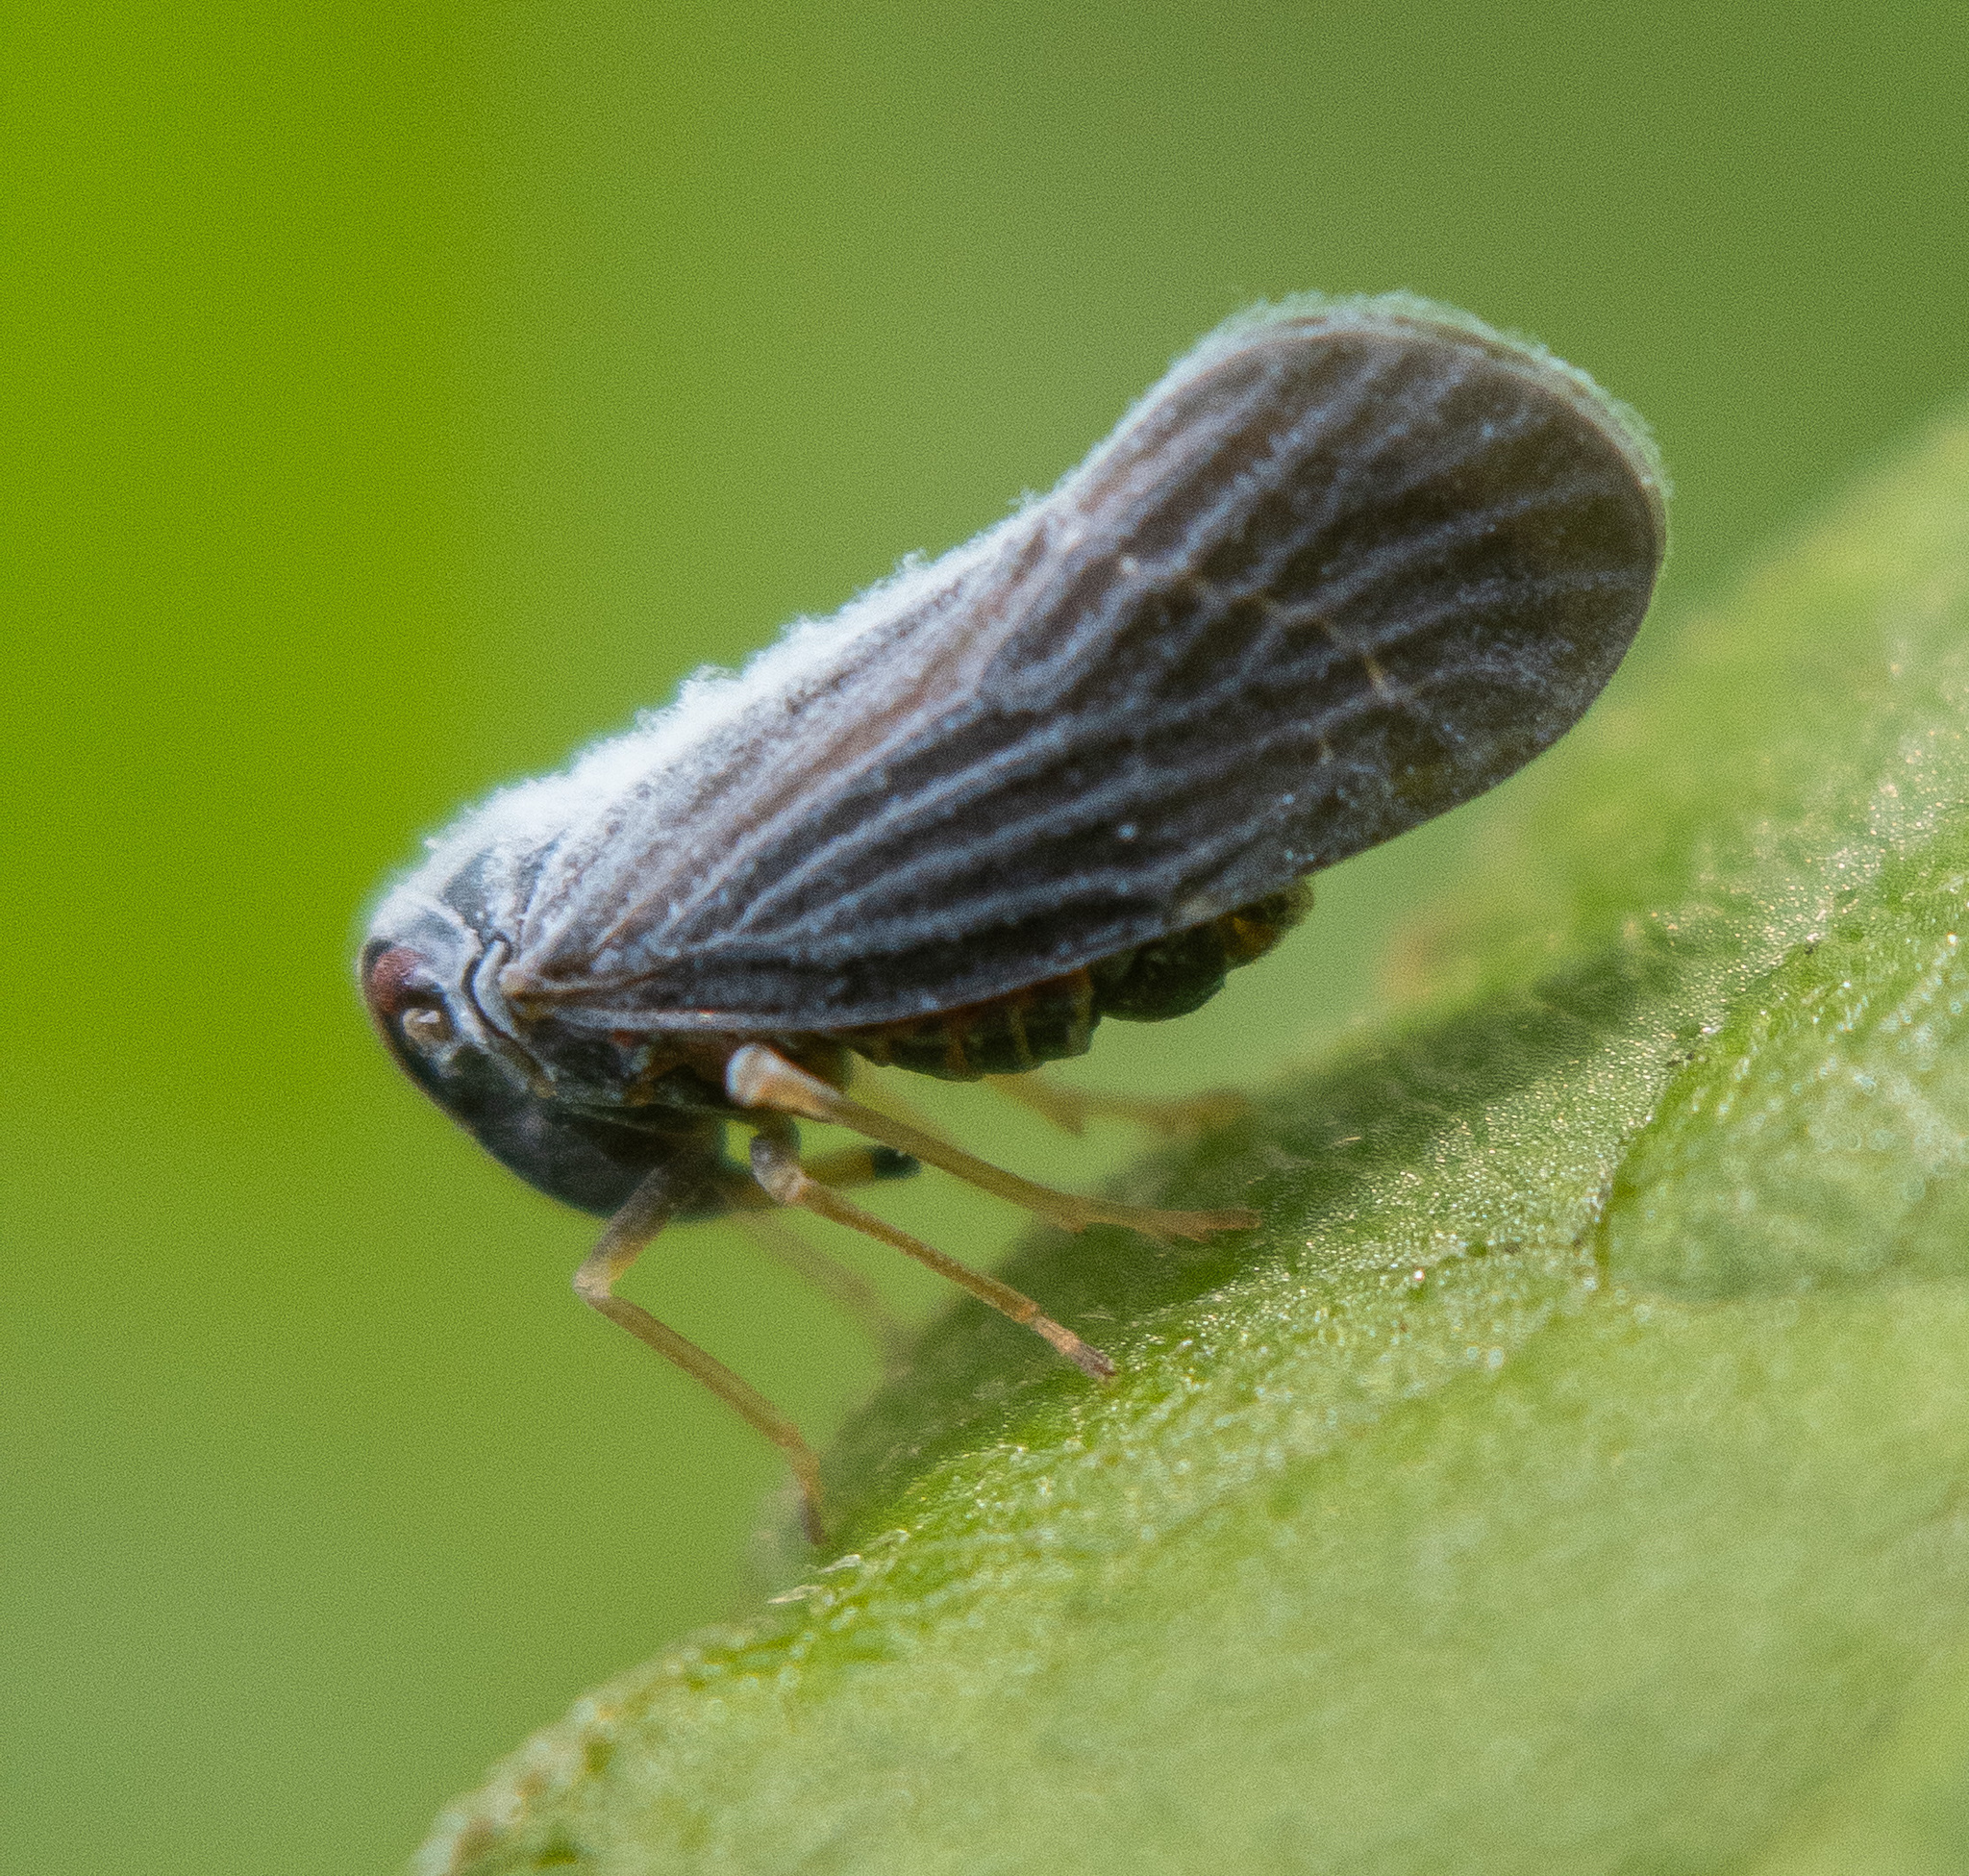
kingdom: Animalia
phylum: Arthropoda
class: Insecta
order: Hemiptera
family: Derbidae
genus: Cedusa
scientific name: Cedusa
